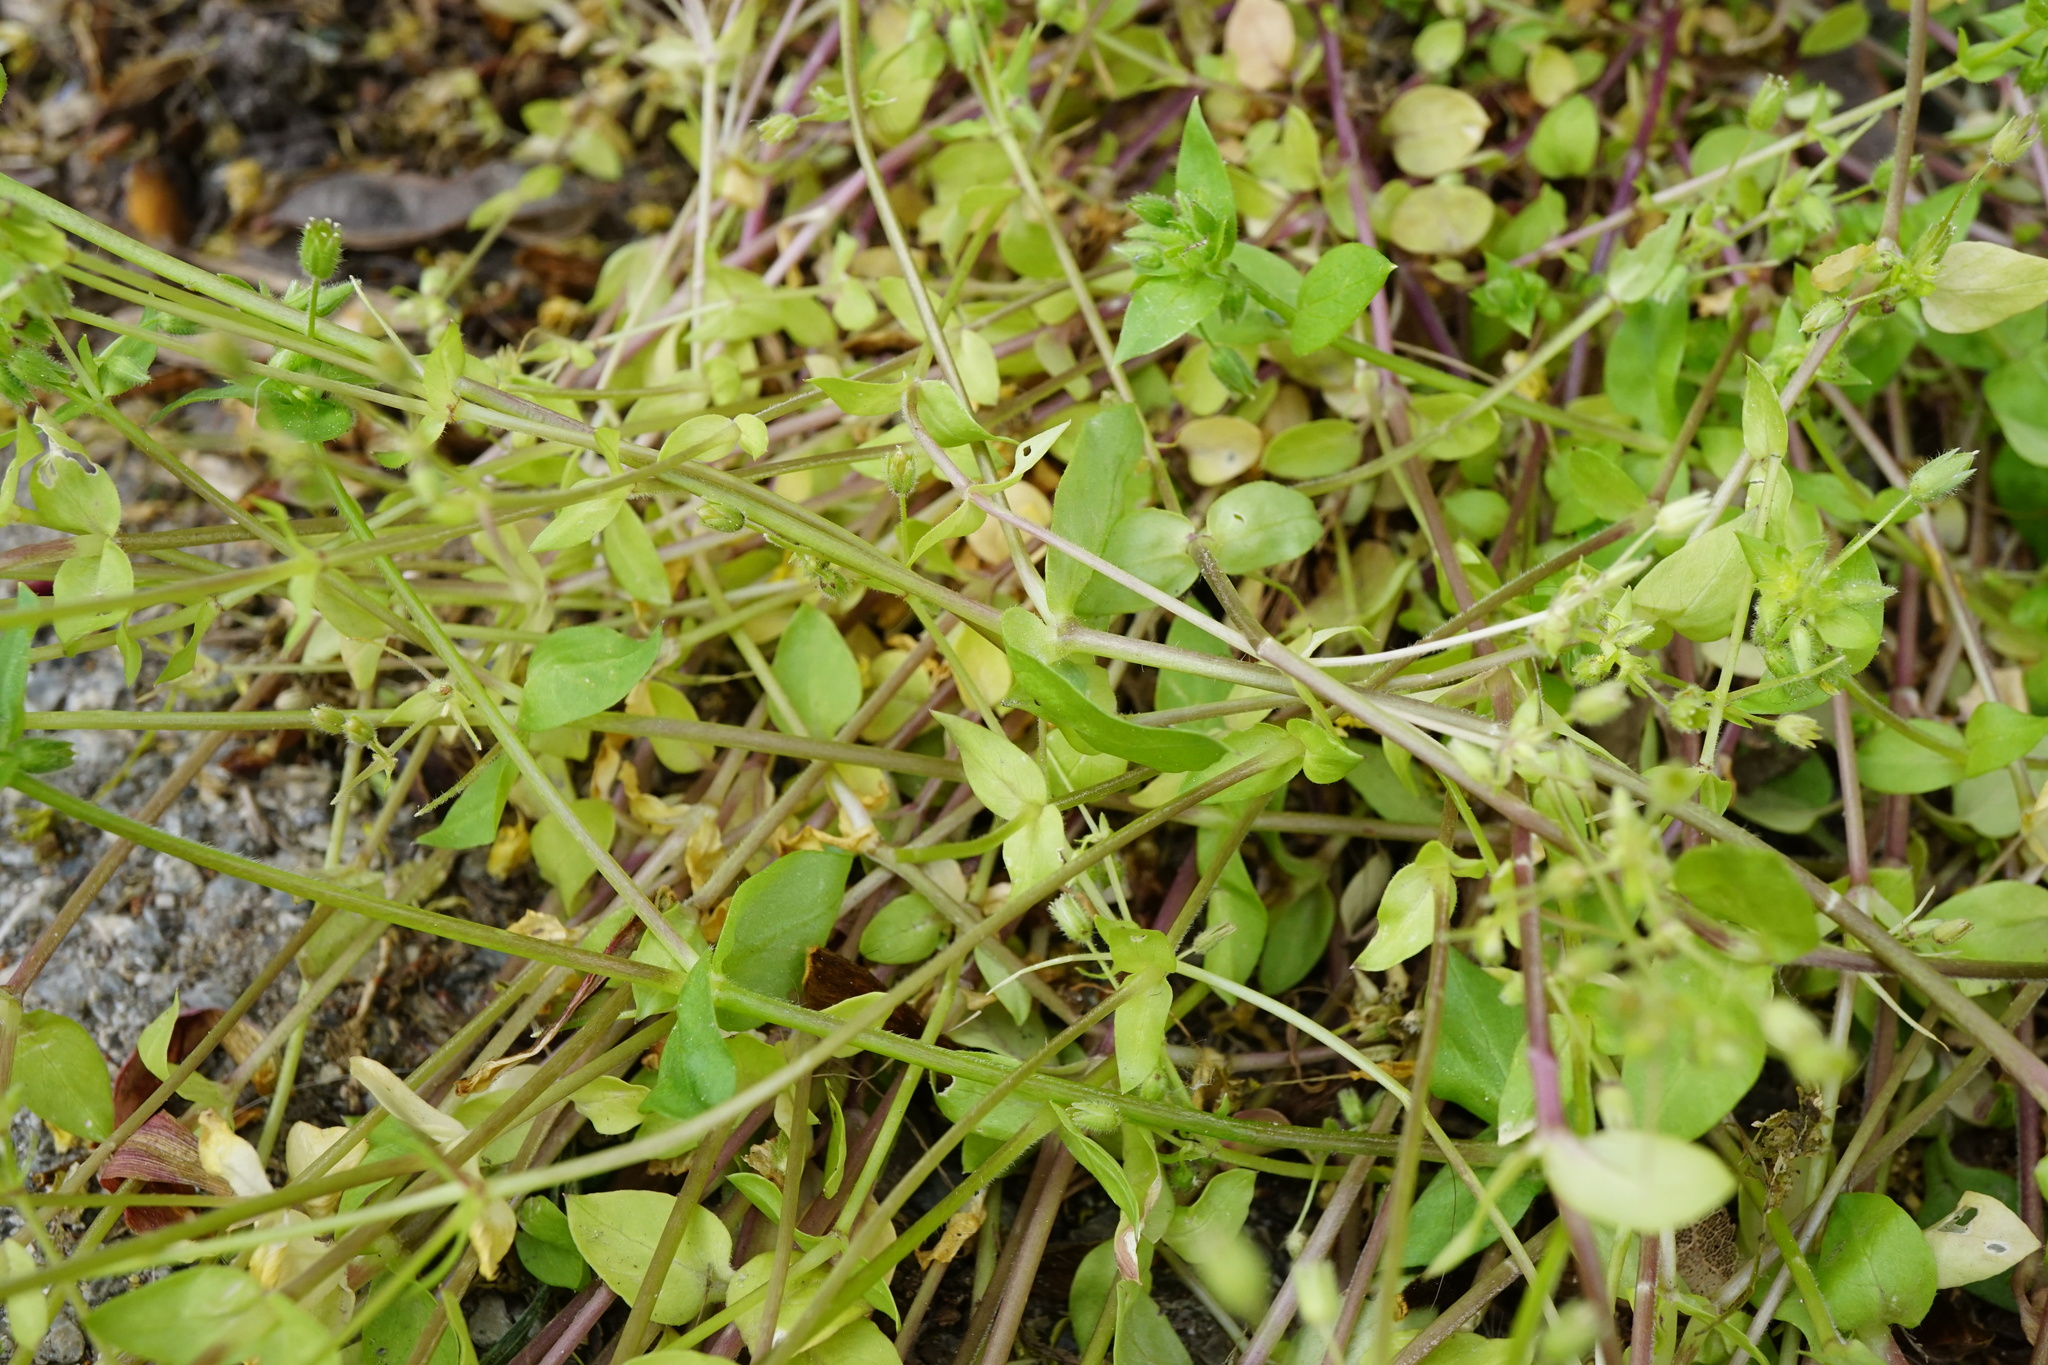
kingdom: Plantae
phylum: Tracheophyta
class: Magnoliopsida
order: Caryophyllales
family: Caryophyllaceae
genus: Stellaria
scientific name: Stellaria apetala
